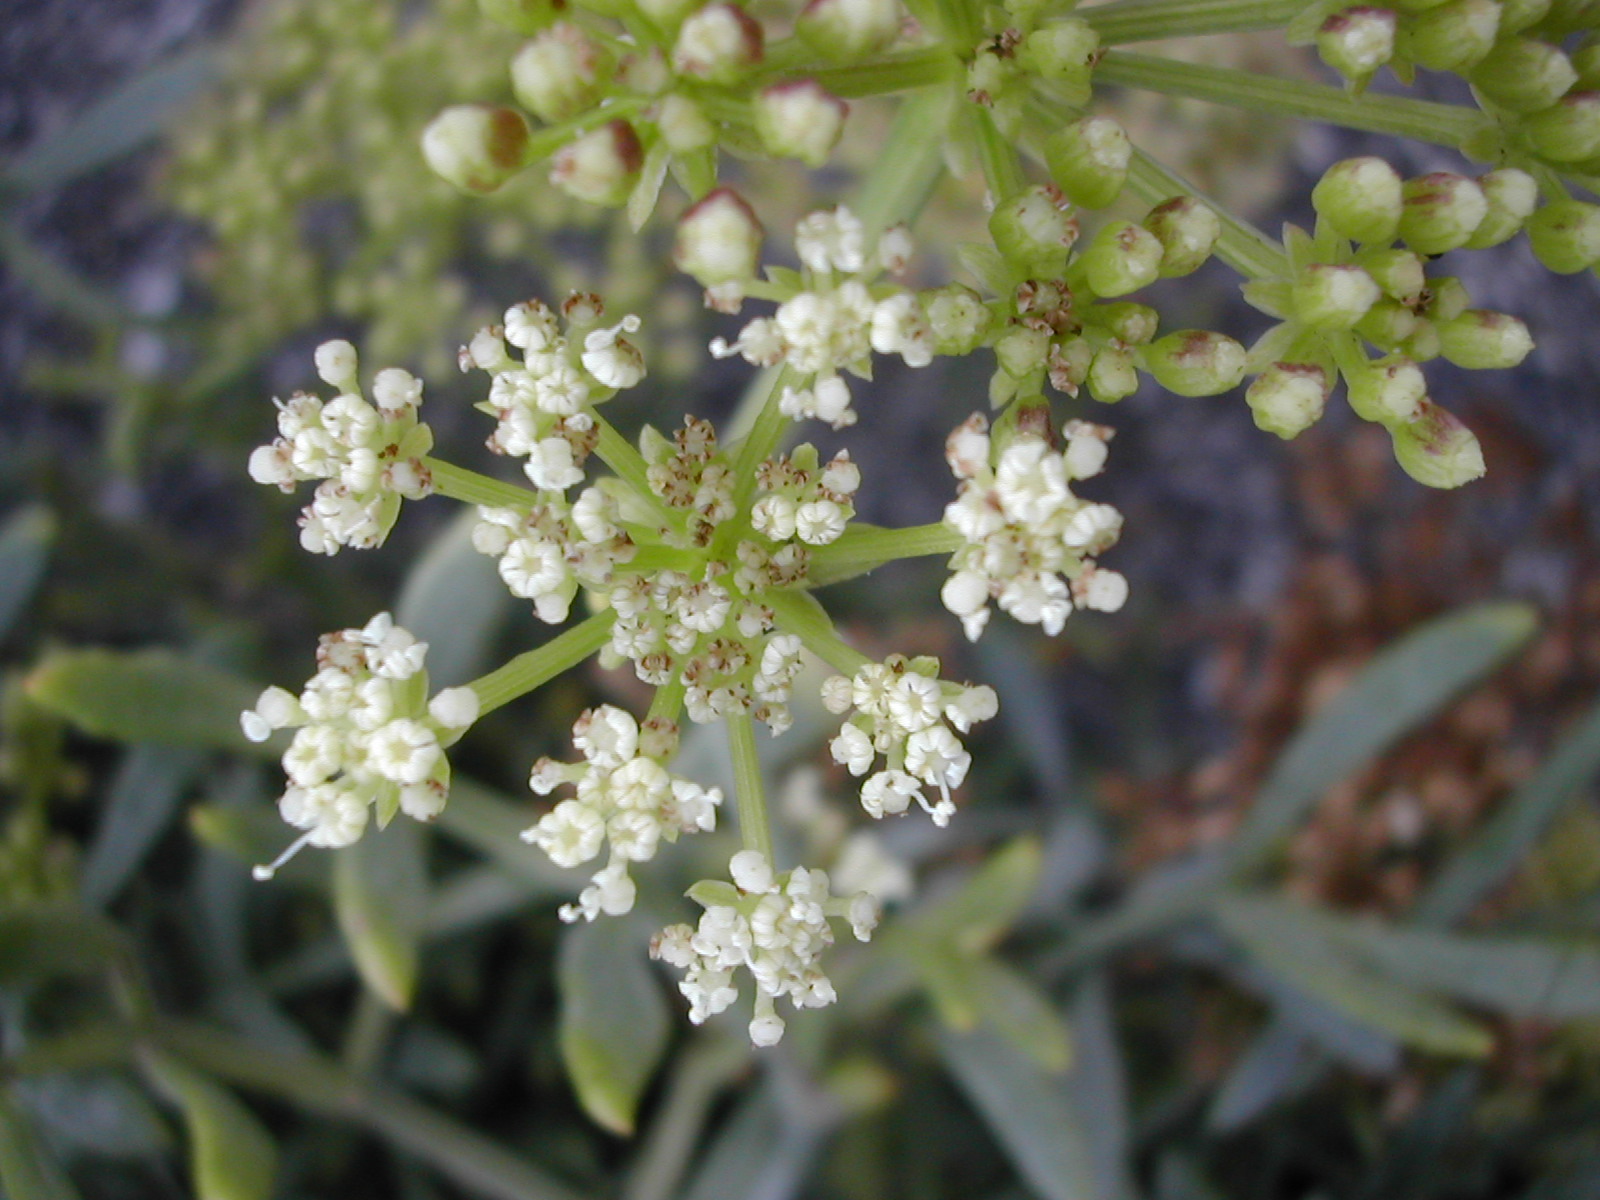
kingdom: Plantae
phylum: Tracheophyta
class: Magnoliopsida
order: Apiales
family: Apiaceae
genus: Crithmum
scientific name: Crithmum maritimum
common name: Rock samphire
